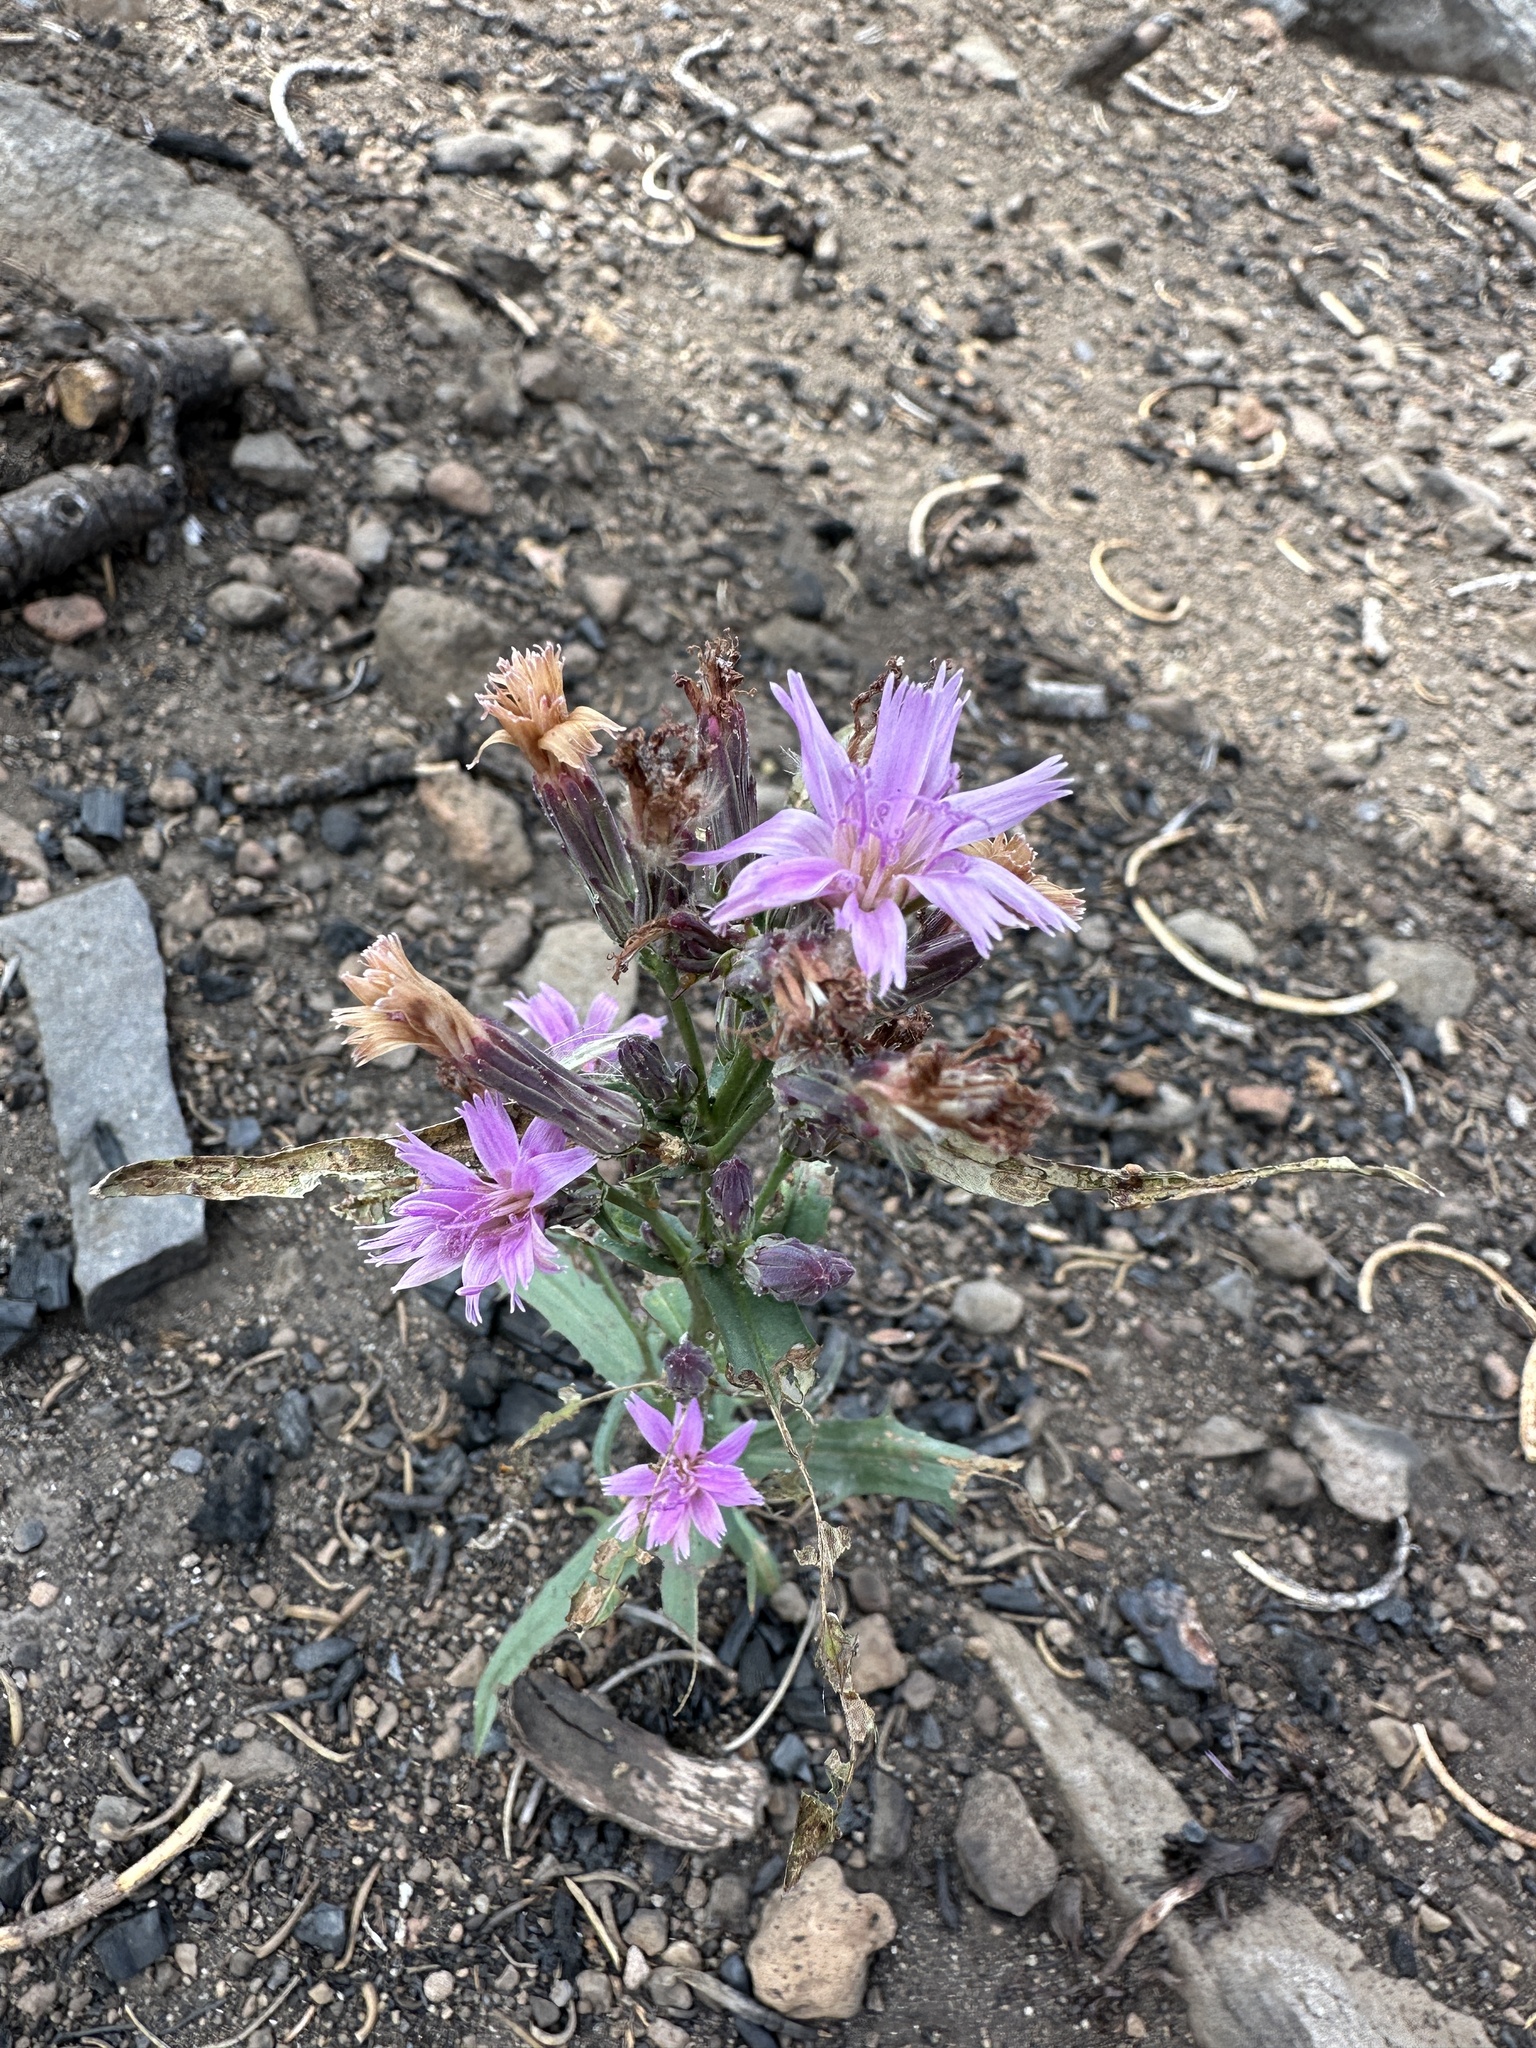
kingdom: Plantae
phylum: Tracheophyta
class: Magnoliopsida
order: Asterales
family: Asteraceae
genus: Stephanomeria
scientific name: Stephanomeria lactucina
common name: Large-flowered wirelettuce
